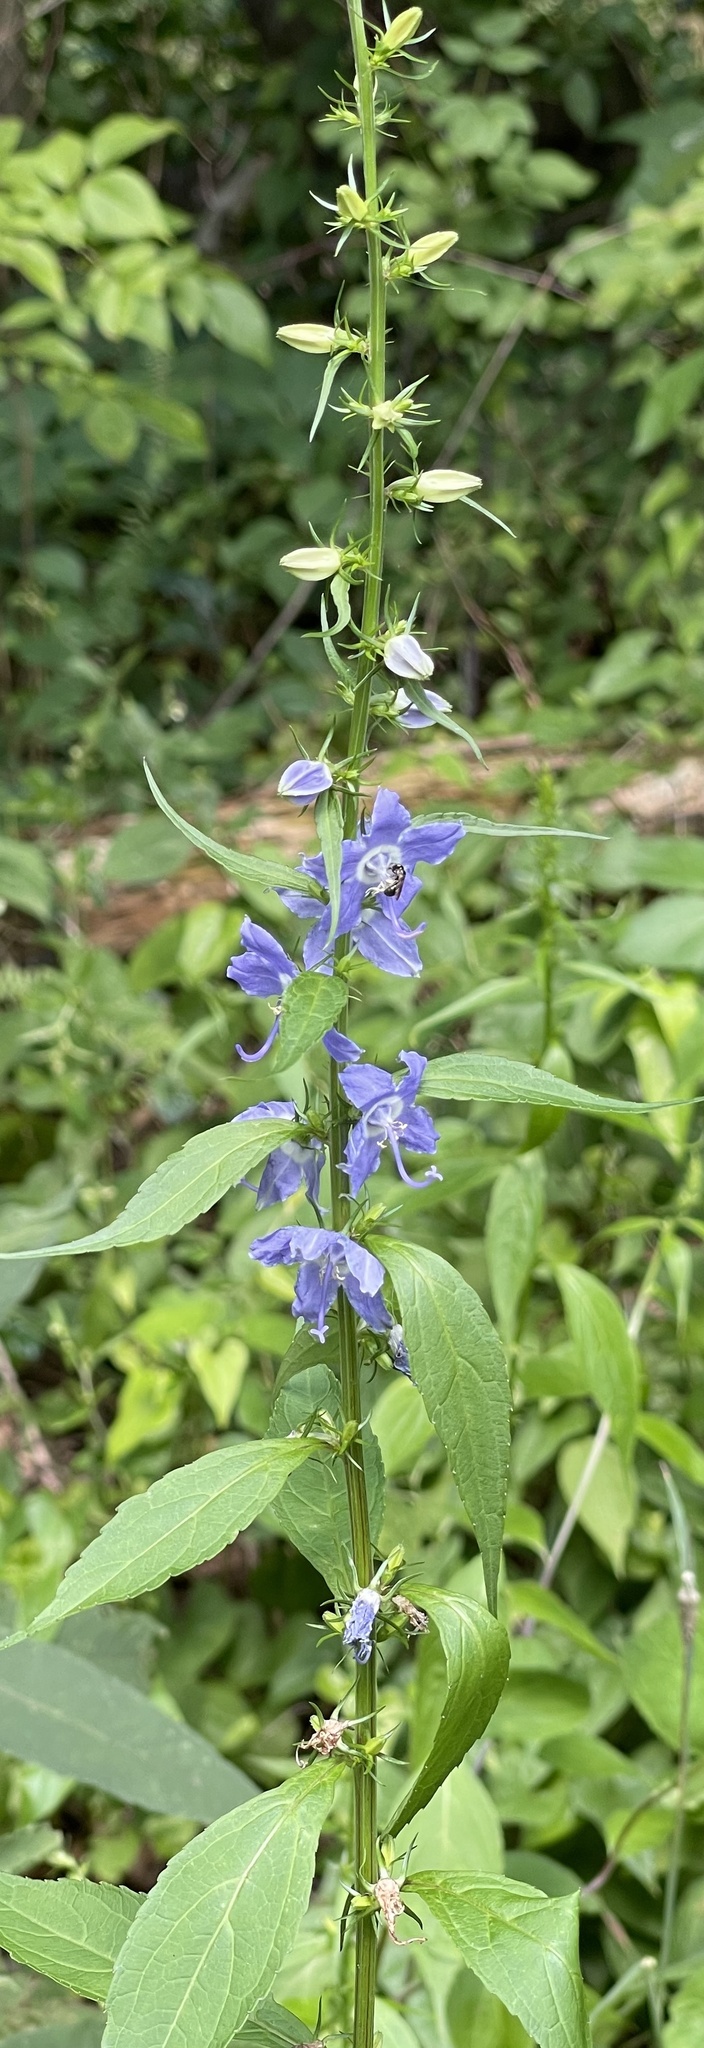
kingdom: Plantae
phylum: Tracheophyta
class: Magnoliopsida
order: Asterales
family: Campanulaceae
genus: Campanulastrum
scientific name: Campanulastrum americanum
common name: American bellflower
